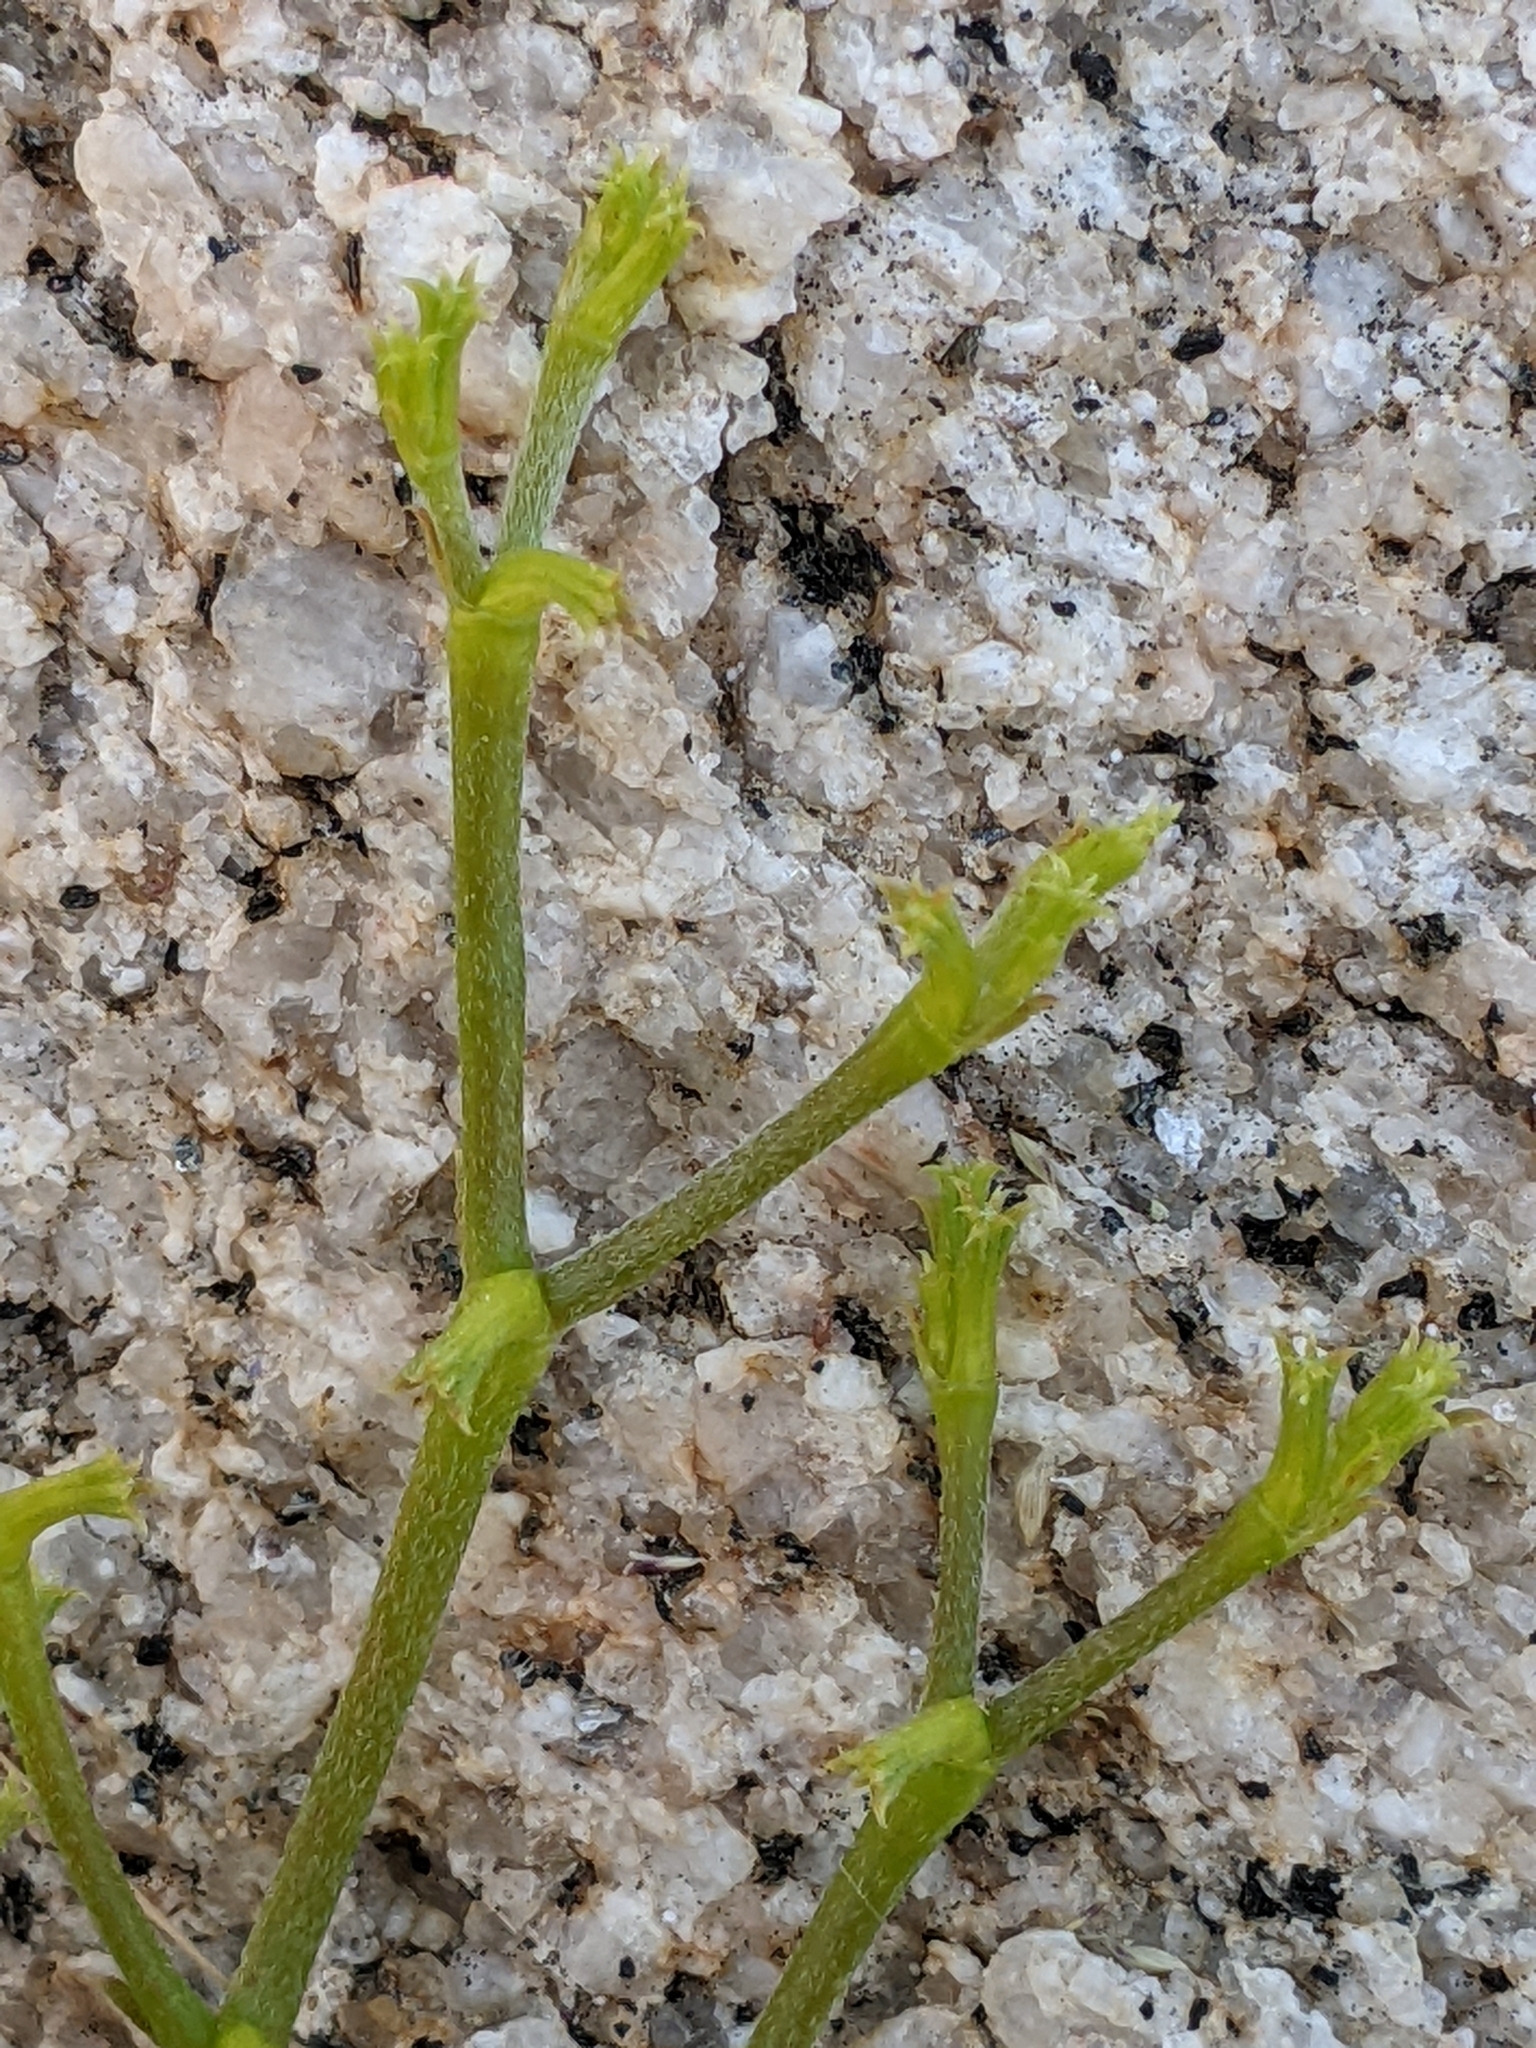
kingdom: Plantae
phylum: Tracheophyta
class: Magnoliopsida
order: Caryophyllales
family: Polygonaceae
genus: Chorizanthe
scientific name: Chorizanthe brevicornu
